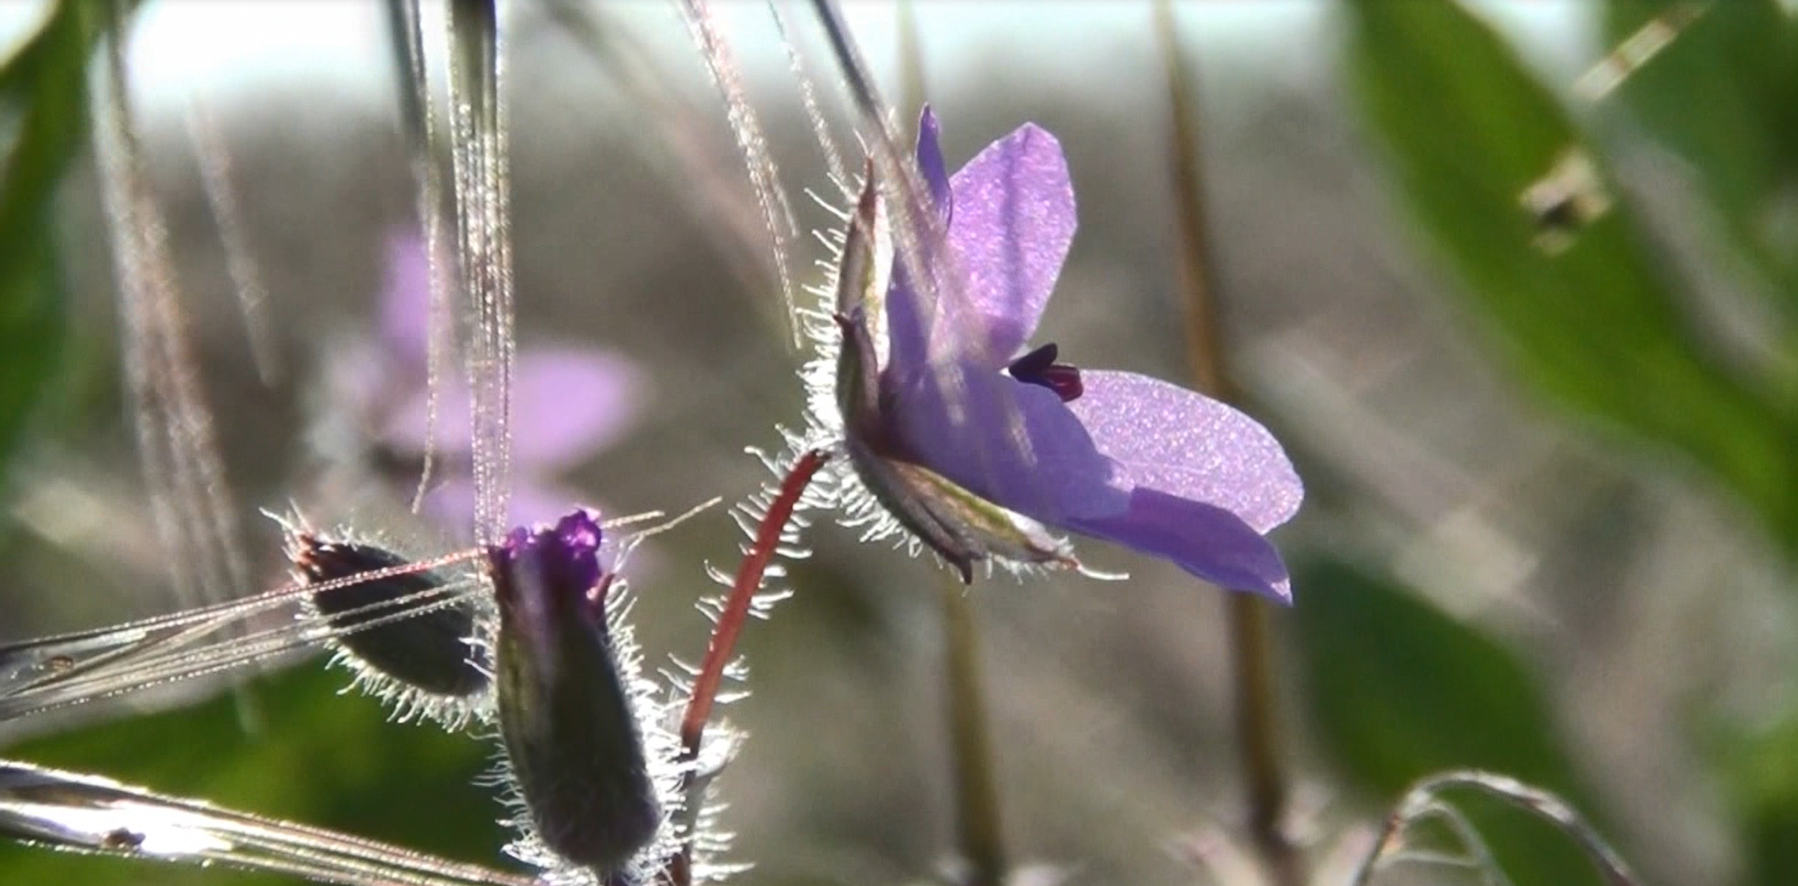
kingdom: Plantae
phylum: Tracheophyta
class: Magnoliopsida
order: Geraniales
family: Geraniaceae
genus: Erodium
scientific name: Erodium cicutarium
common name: Common stork's-bill
